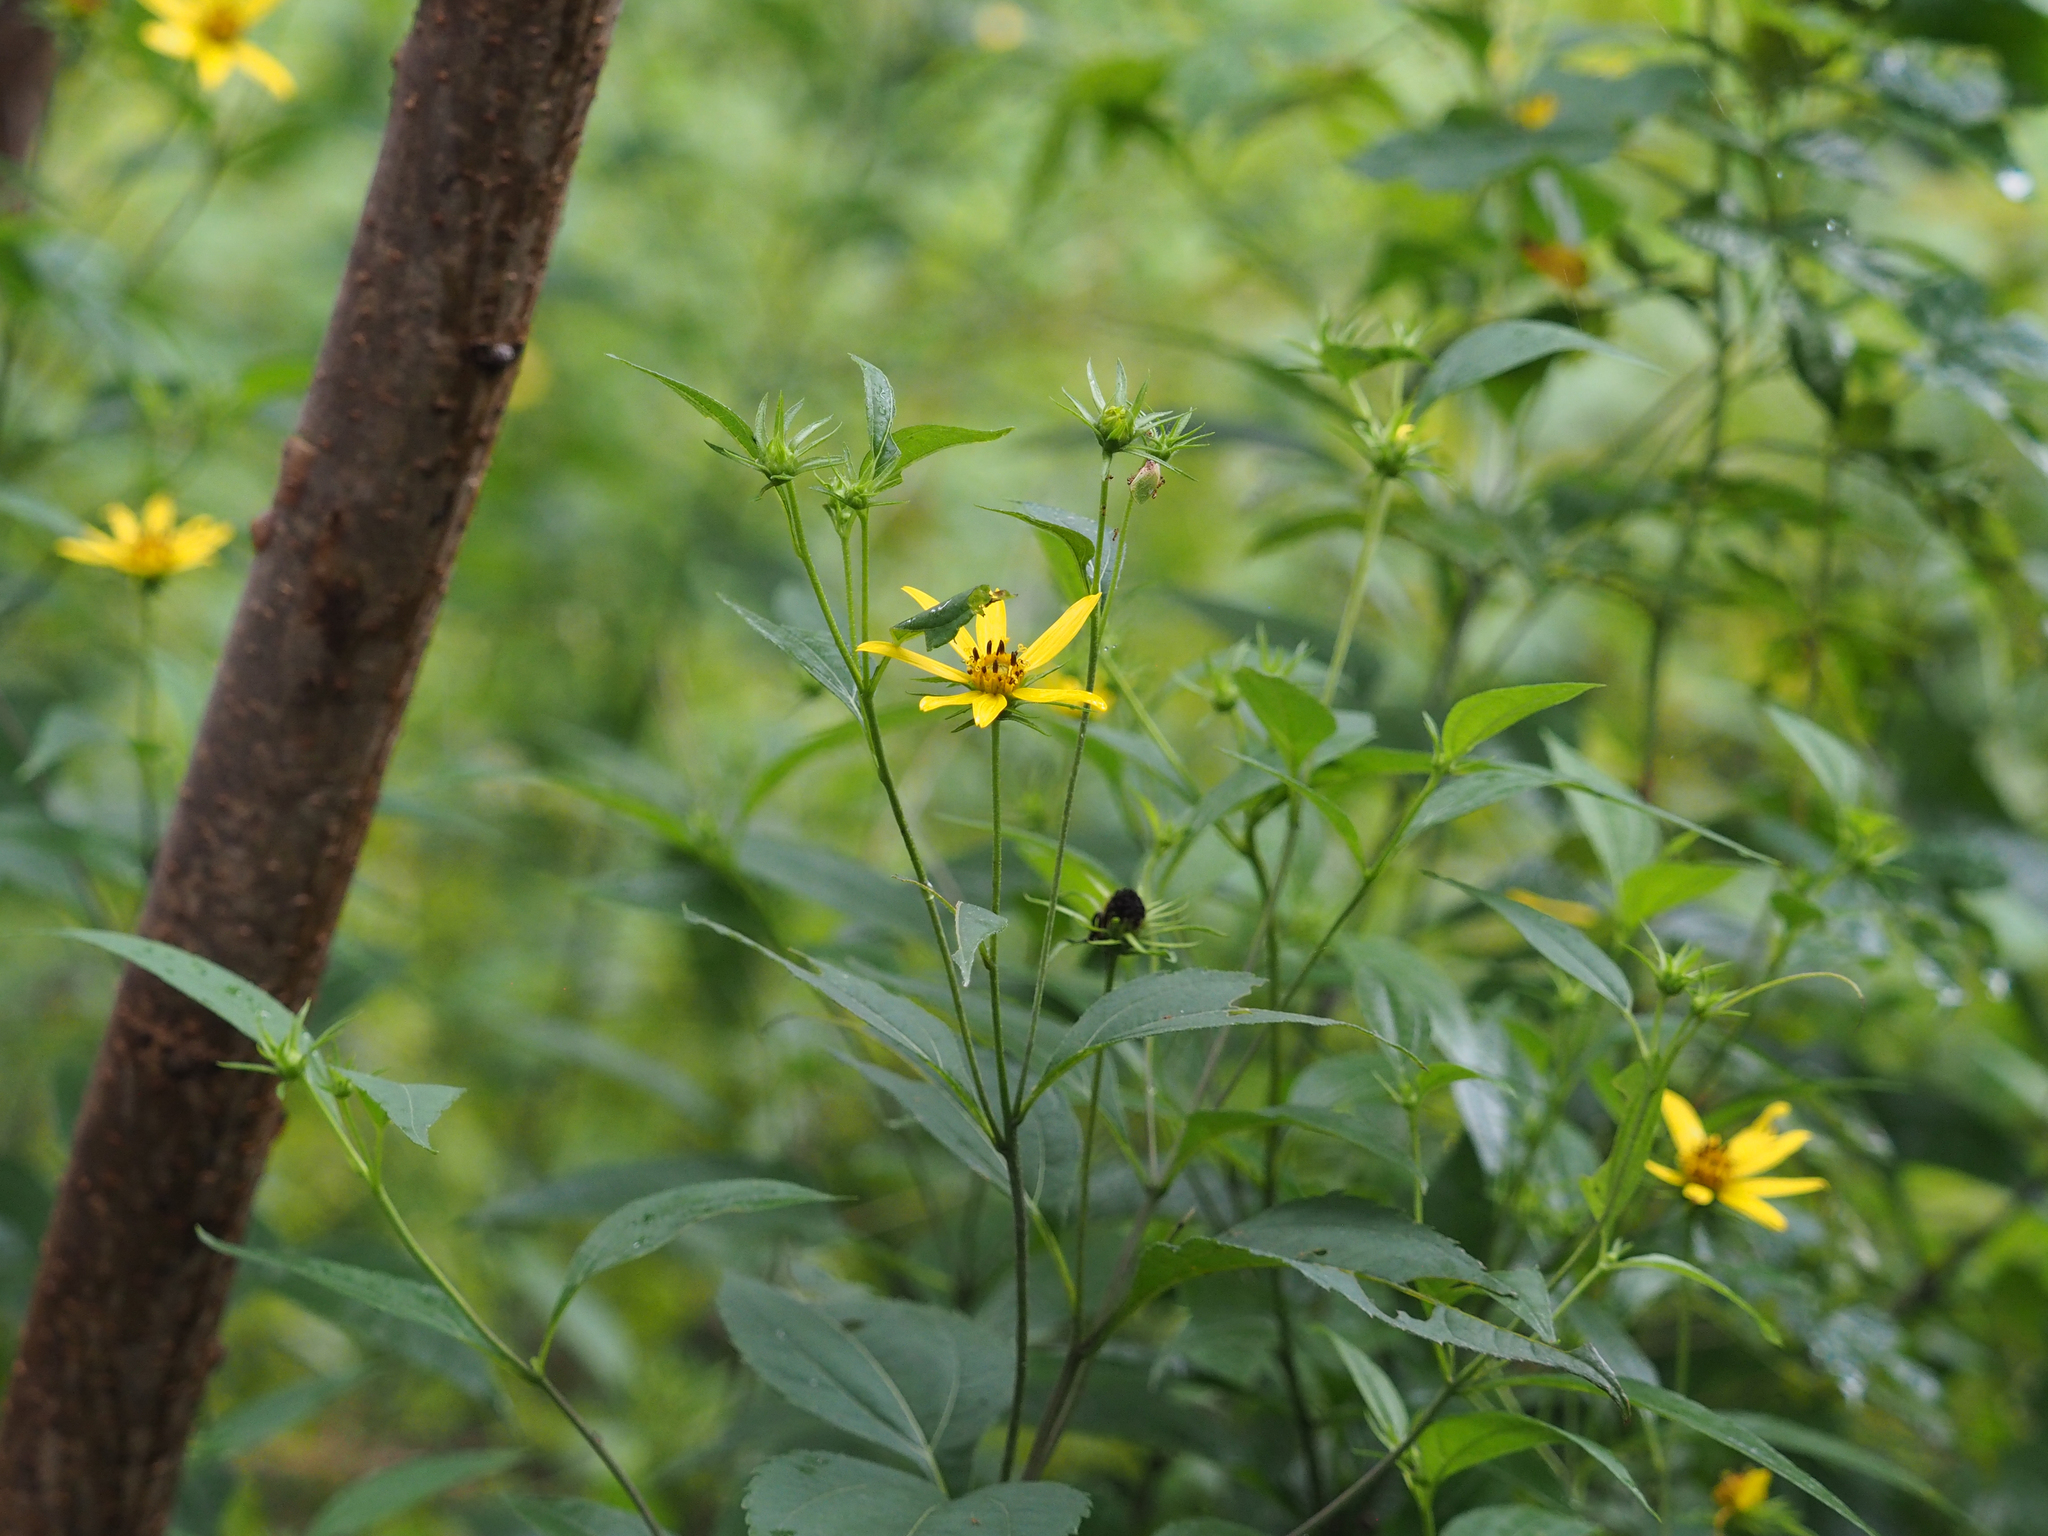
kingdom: Plantae
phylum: Tracheophyta
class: Magnoliopsida
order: Asterales
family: Asteraceae
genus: Helianthus
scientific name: Helianthus tuberosus
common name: Jerusalem artichoke
